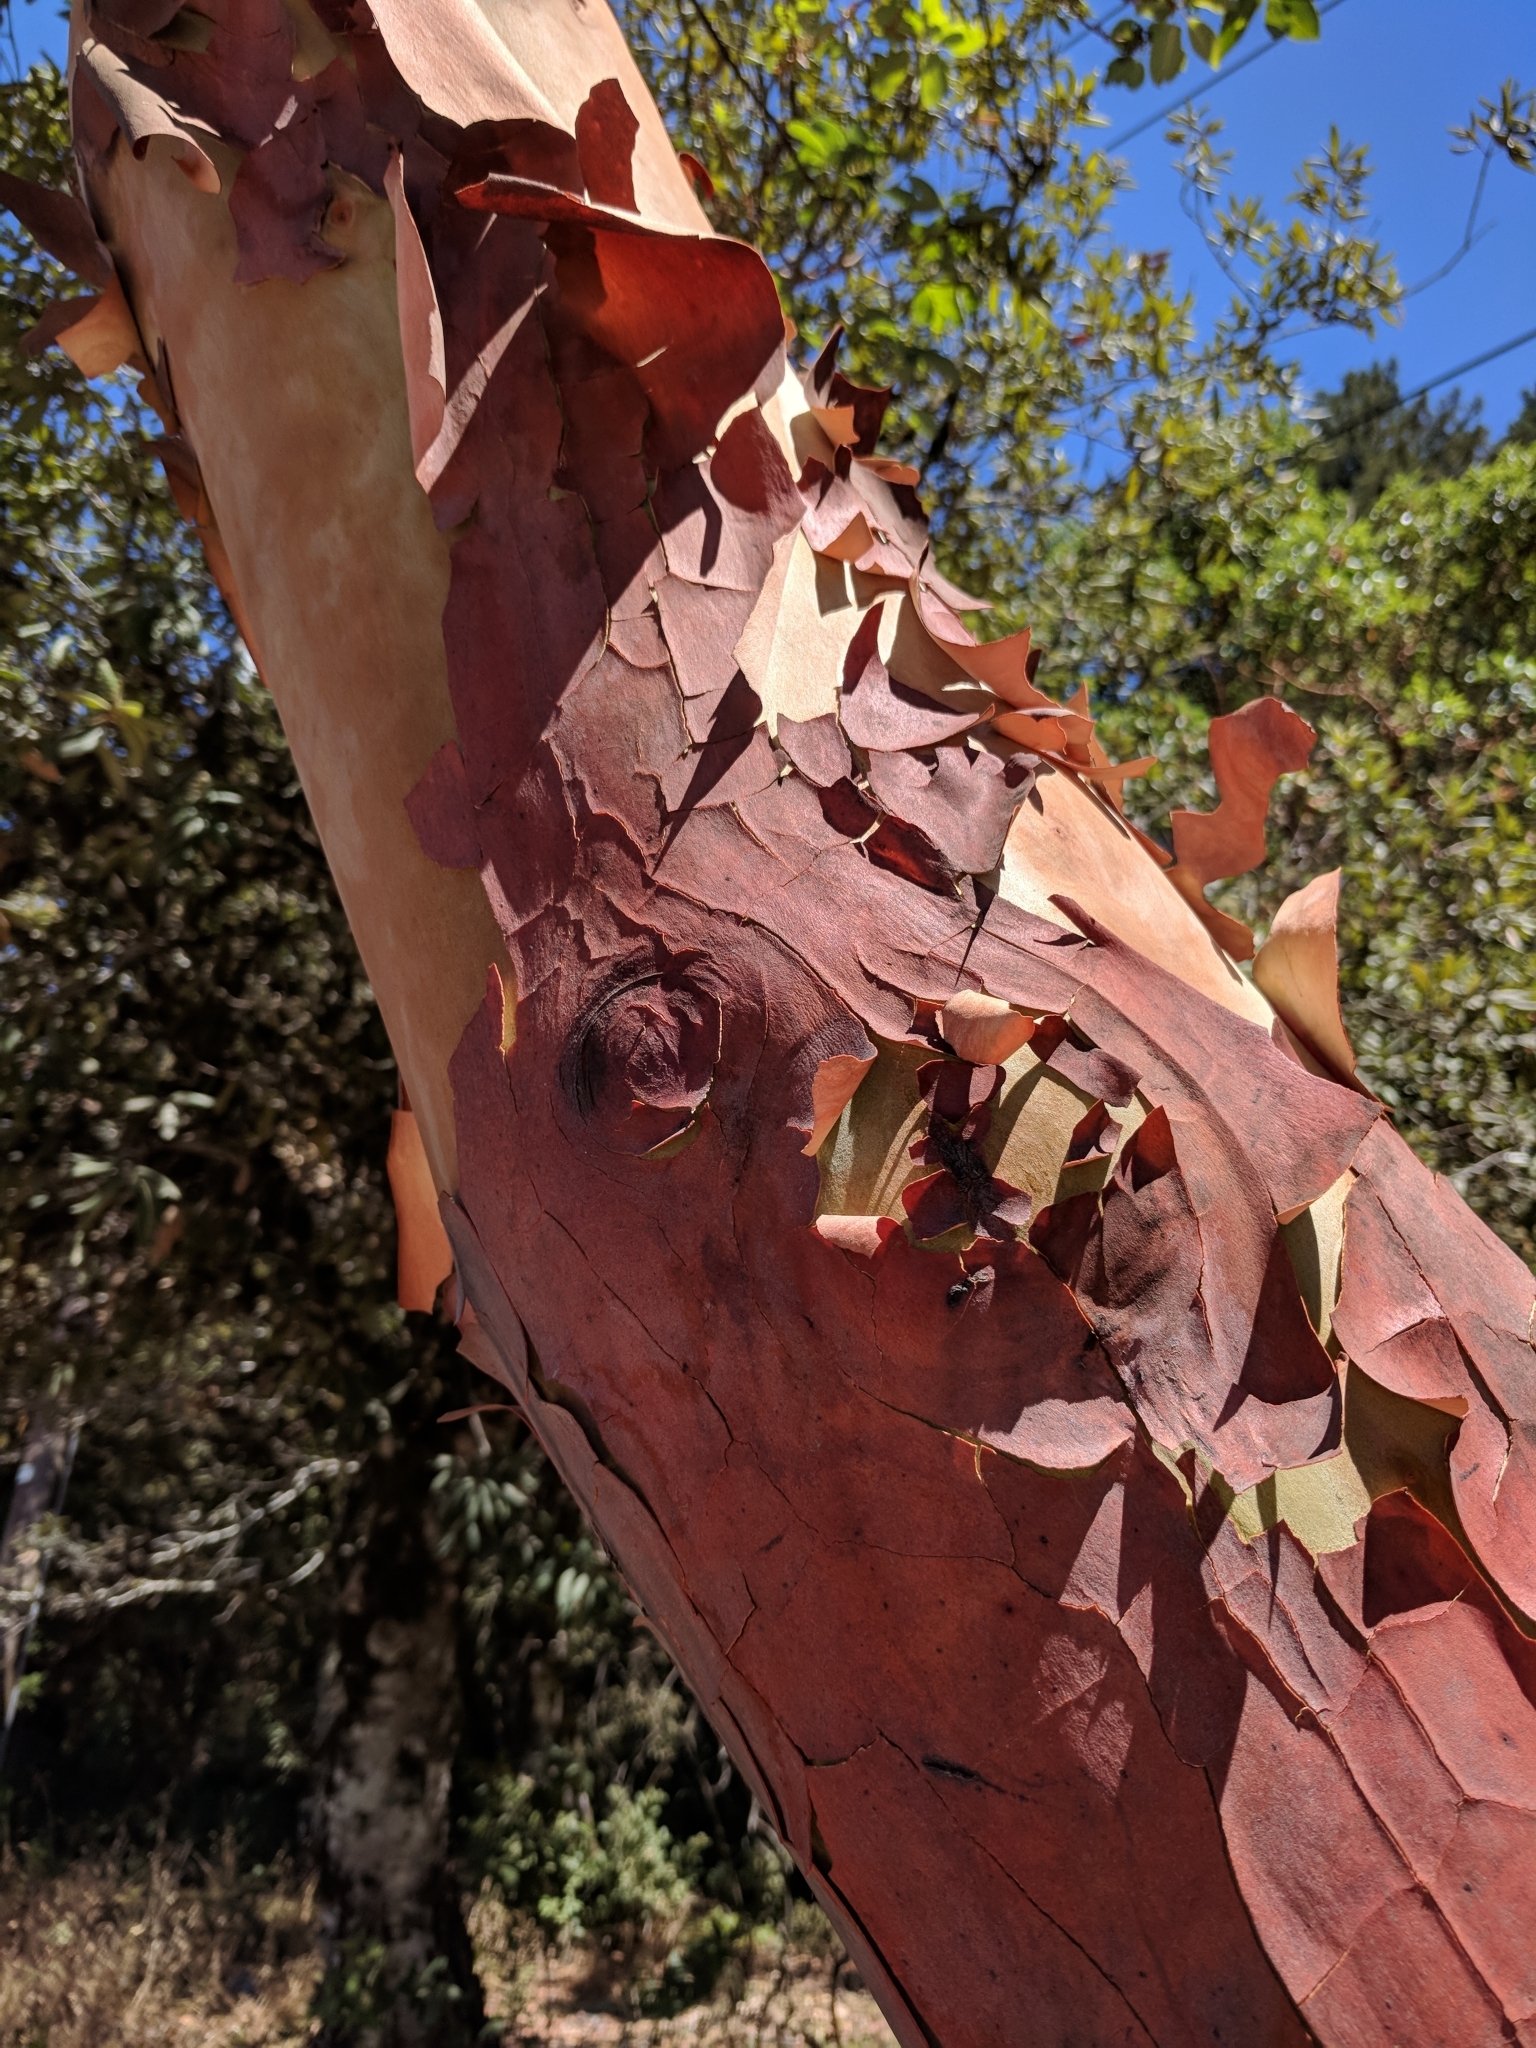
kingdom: Plantae
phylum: Tracheophyta
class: Magnoliopsida
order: Ericales
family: Ericaceae
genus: Arbutus
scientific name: Arbutus menziesii
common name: Pacific madrone
